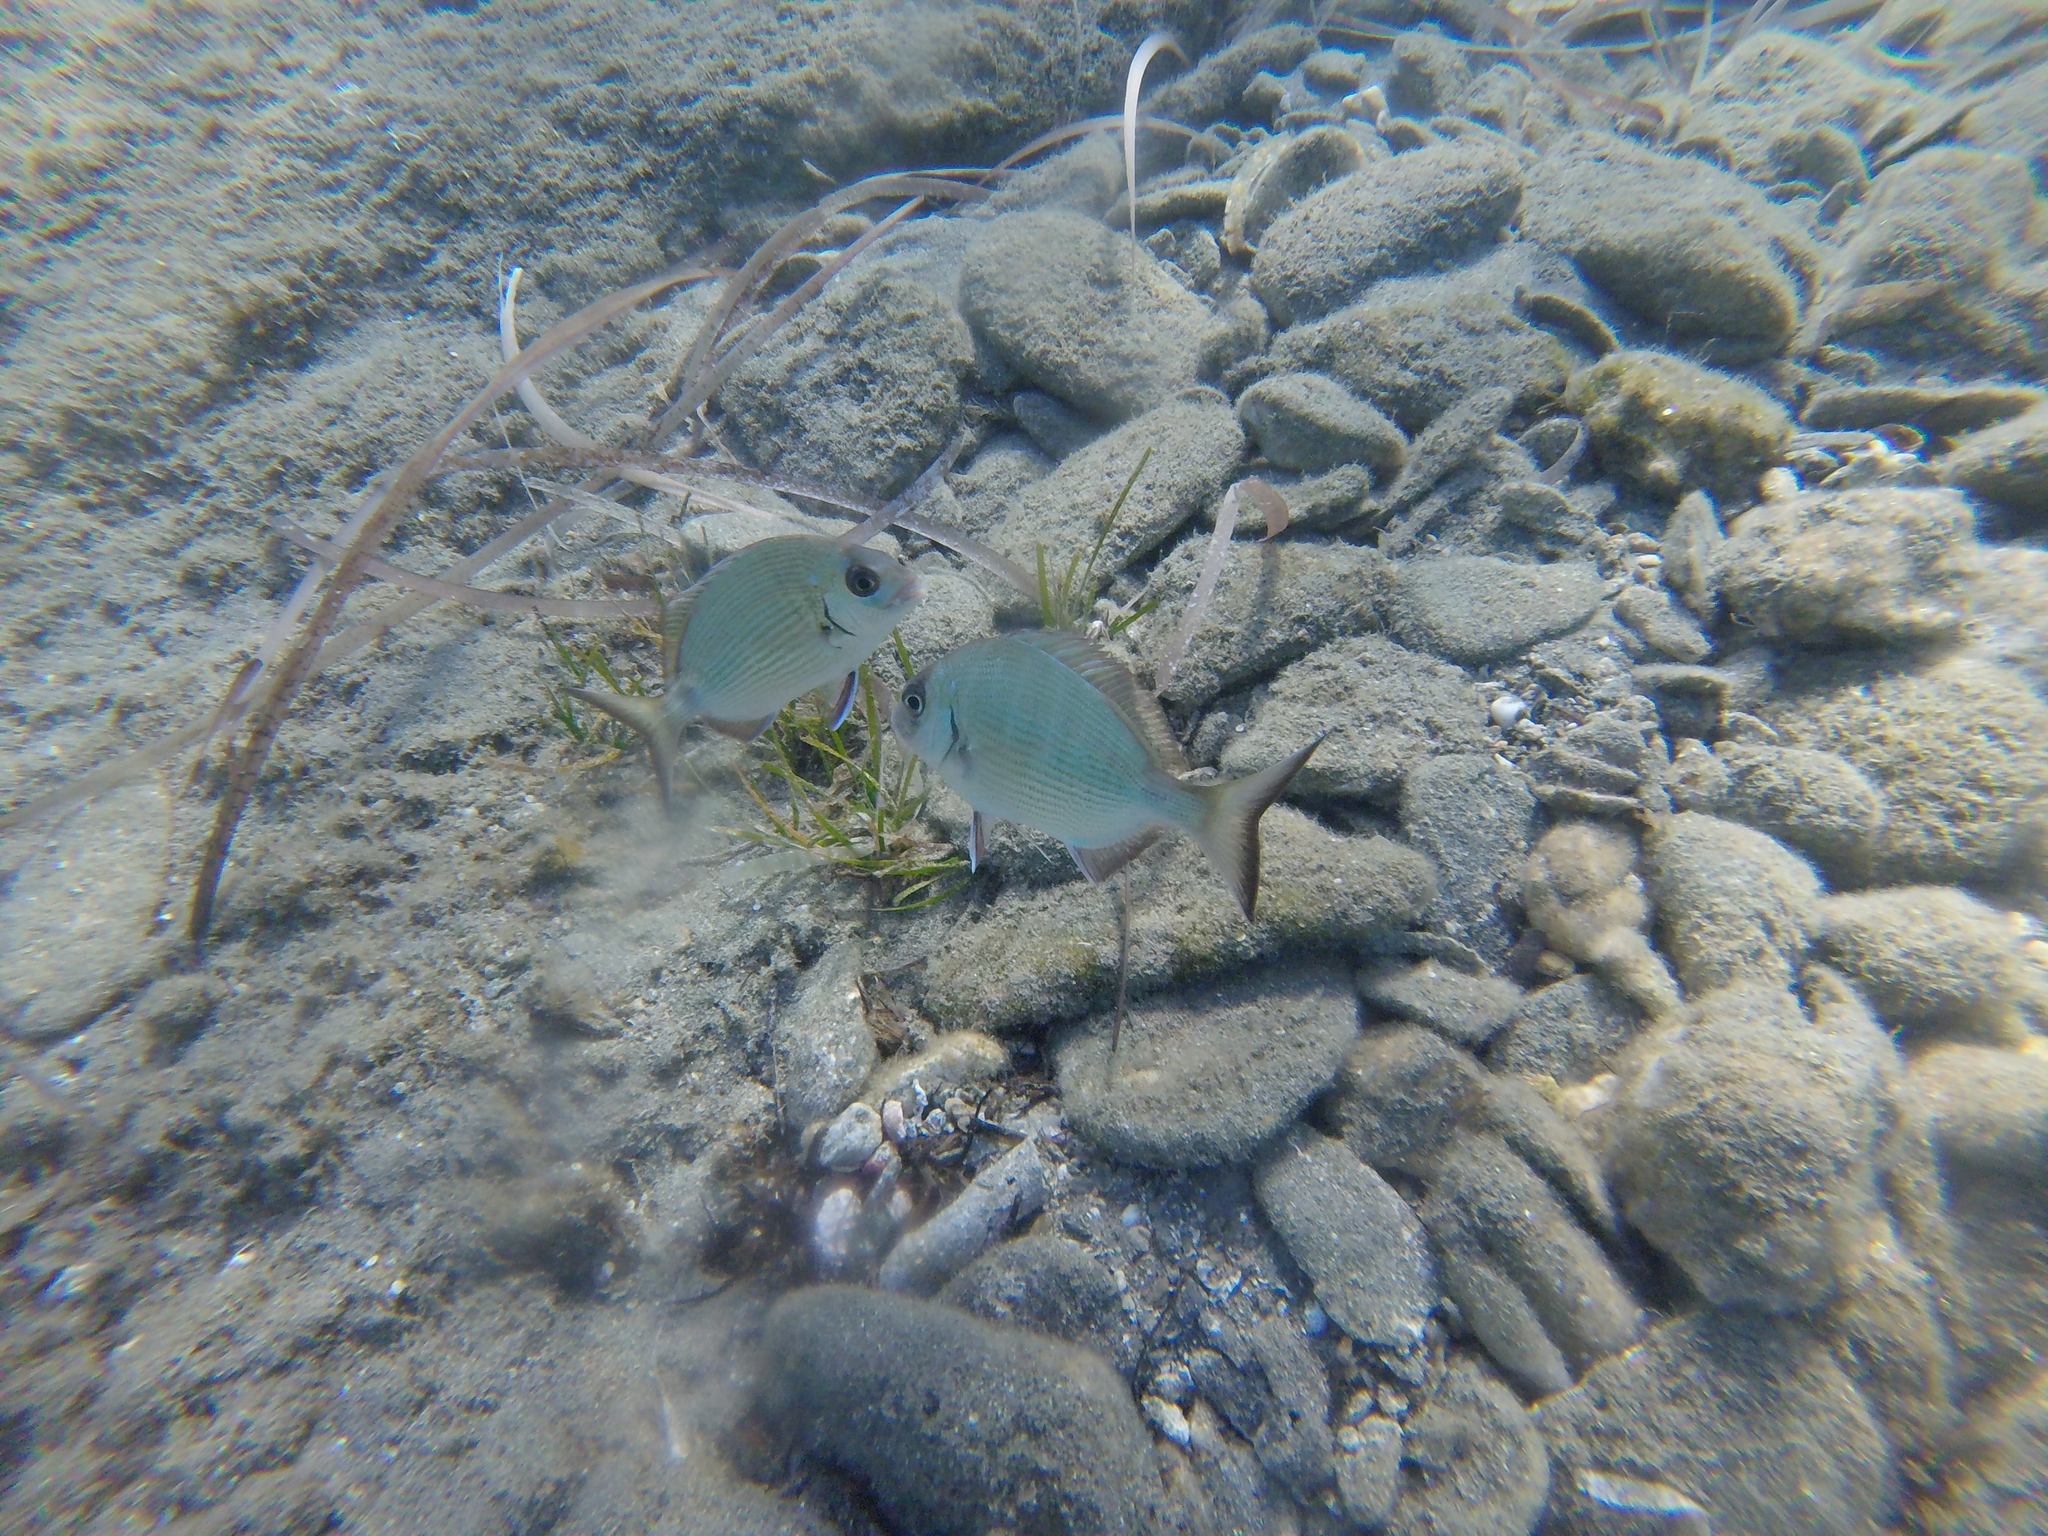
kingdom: Animalia
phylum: Chordata
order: Perciformes
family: Sparidae
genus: Diplodus
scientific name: Diplodus sargus
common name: White seabream
